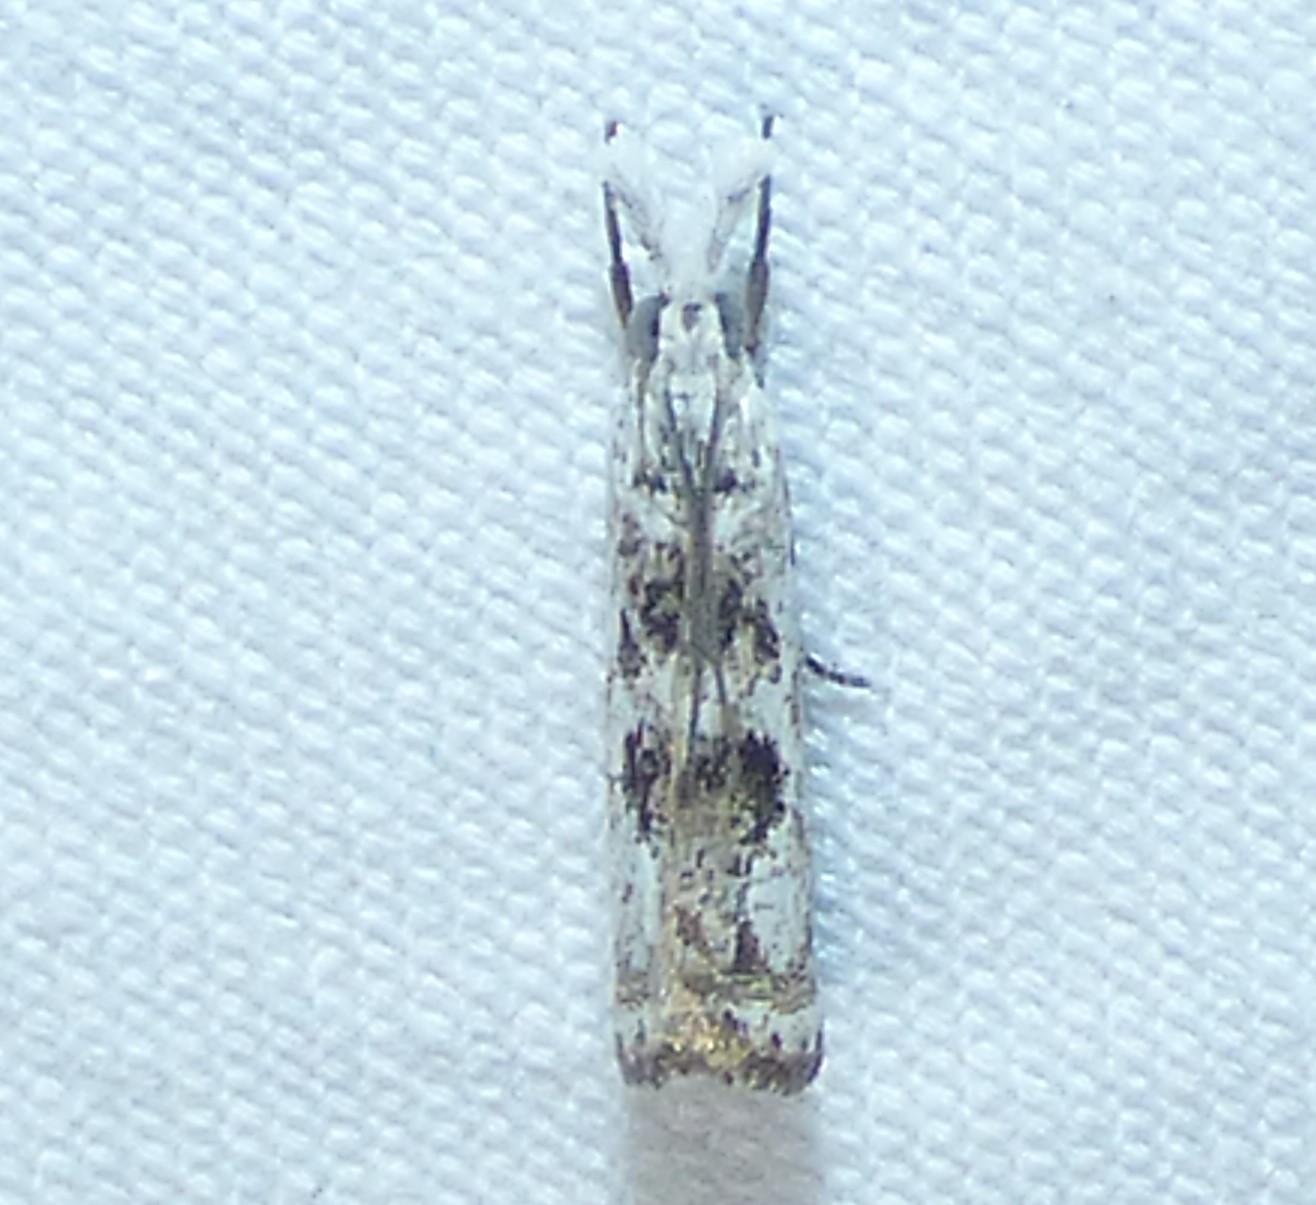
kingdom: Animalia
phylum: Arthropoda
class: Insecta
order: Lepidoptera
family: Crambidae
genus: Microcrambus
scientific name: Microcrambus immunellus
